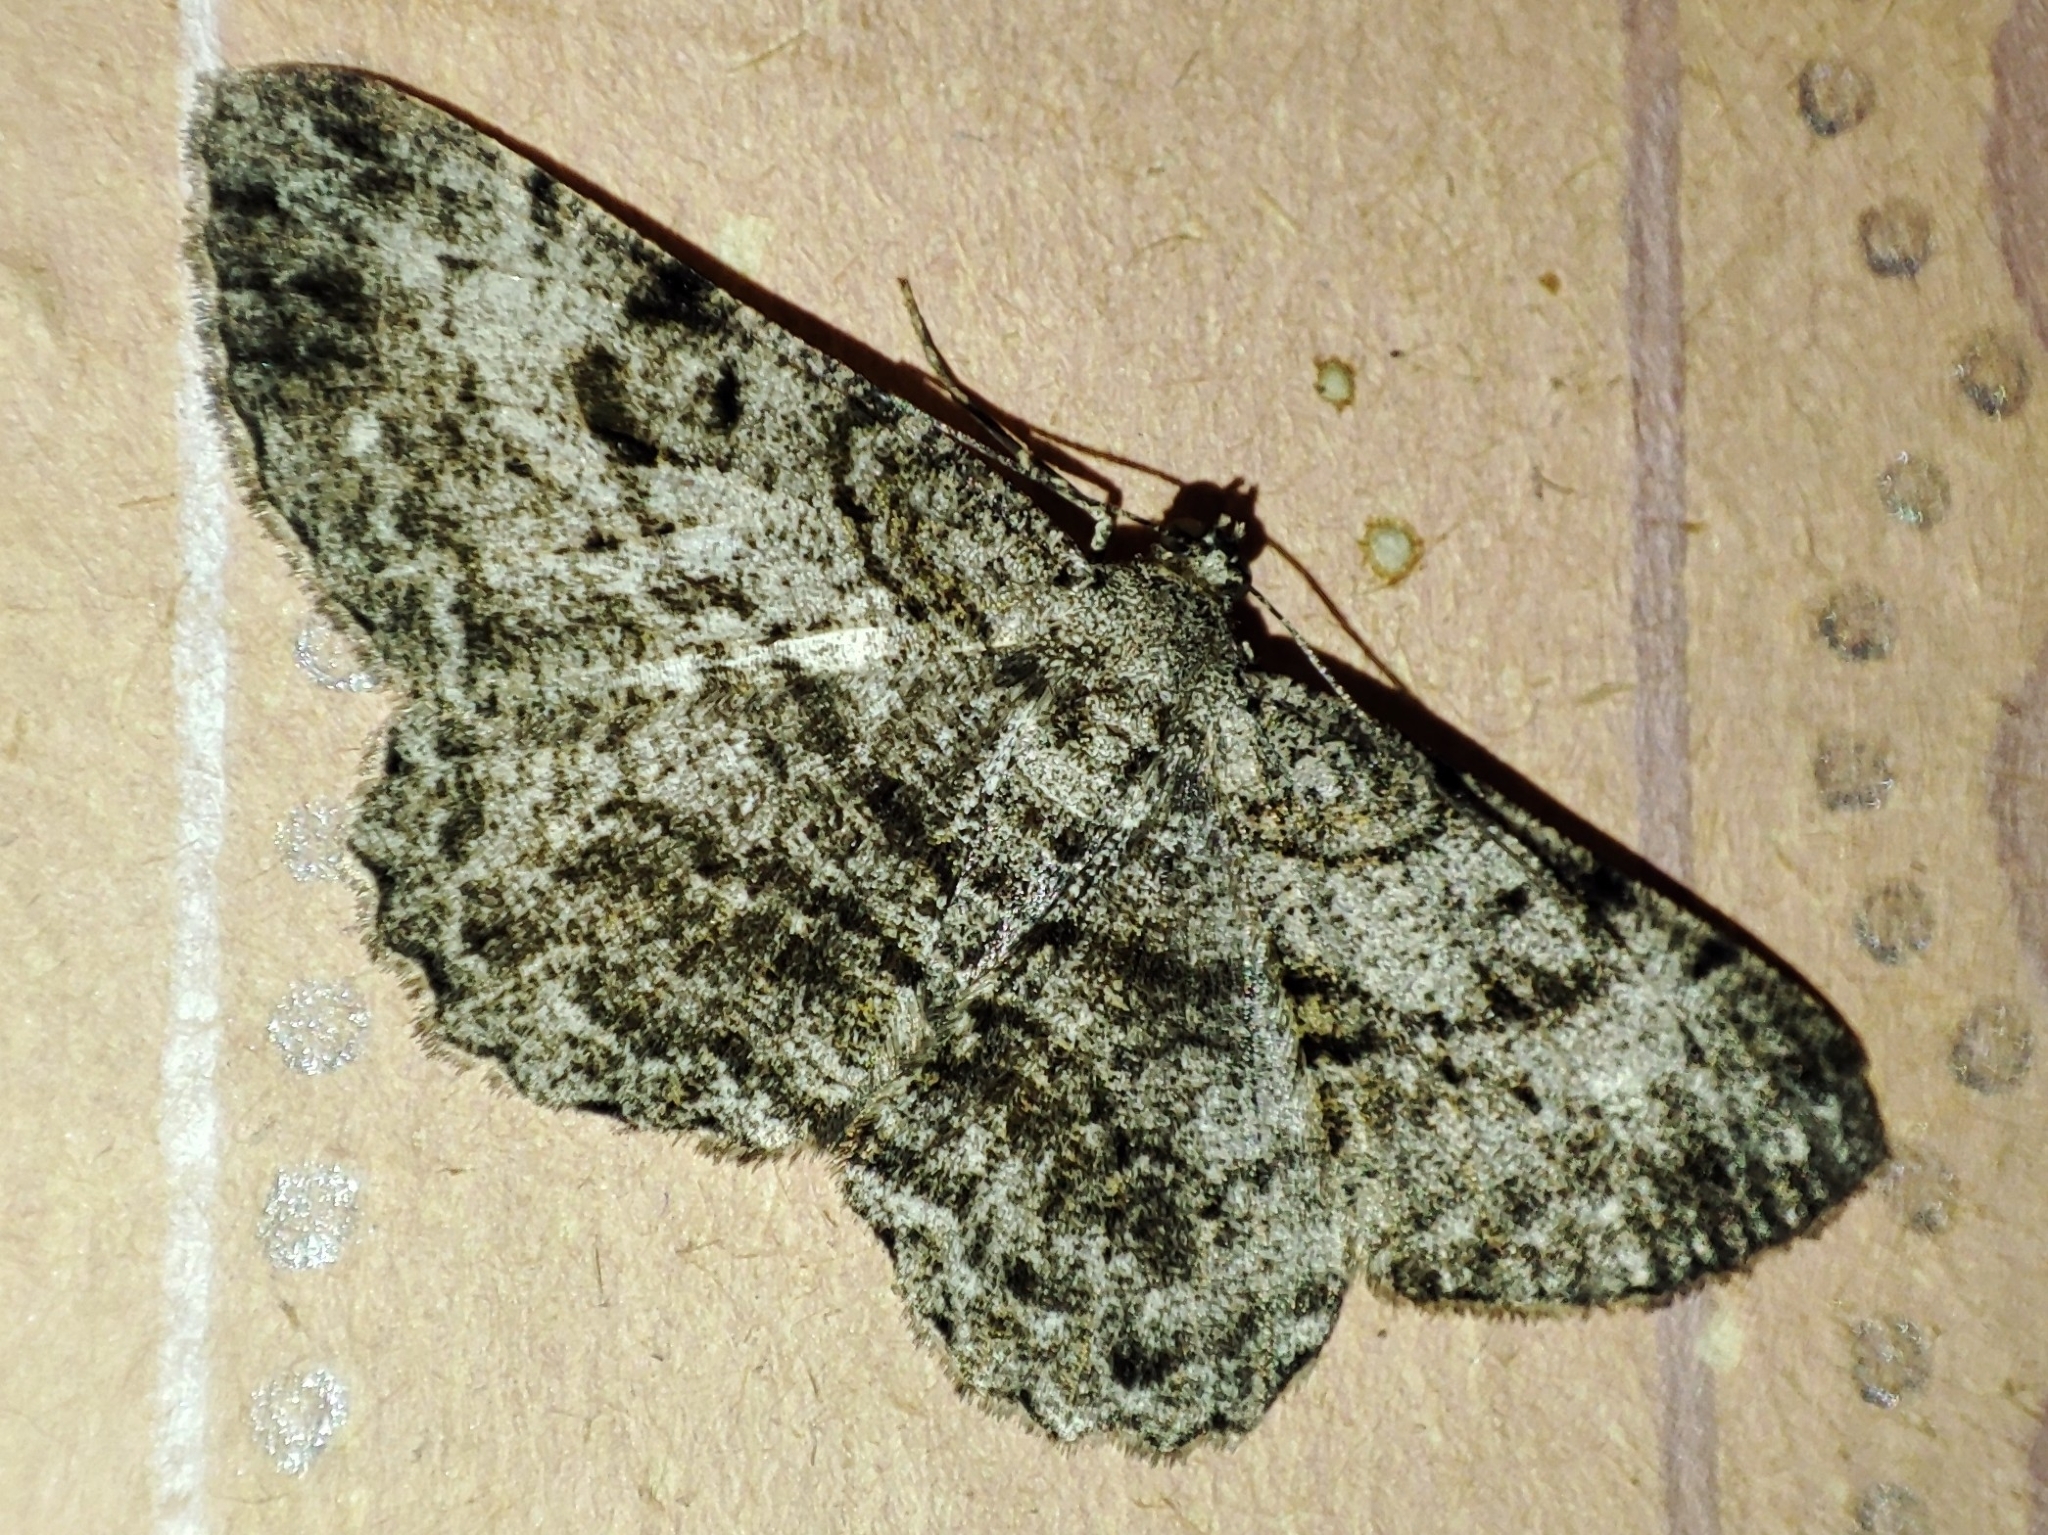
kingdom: Animalia
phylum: Arthropoda
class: Insecta
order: Lepidoptera
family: Geometridae
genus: Peribatodes
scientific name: Peribatodes rhomboidaria
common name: Willow beauty
